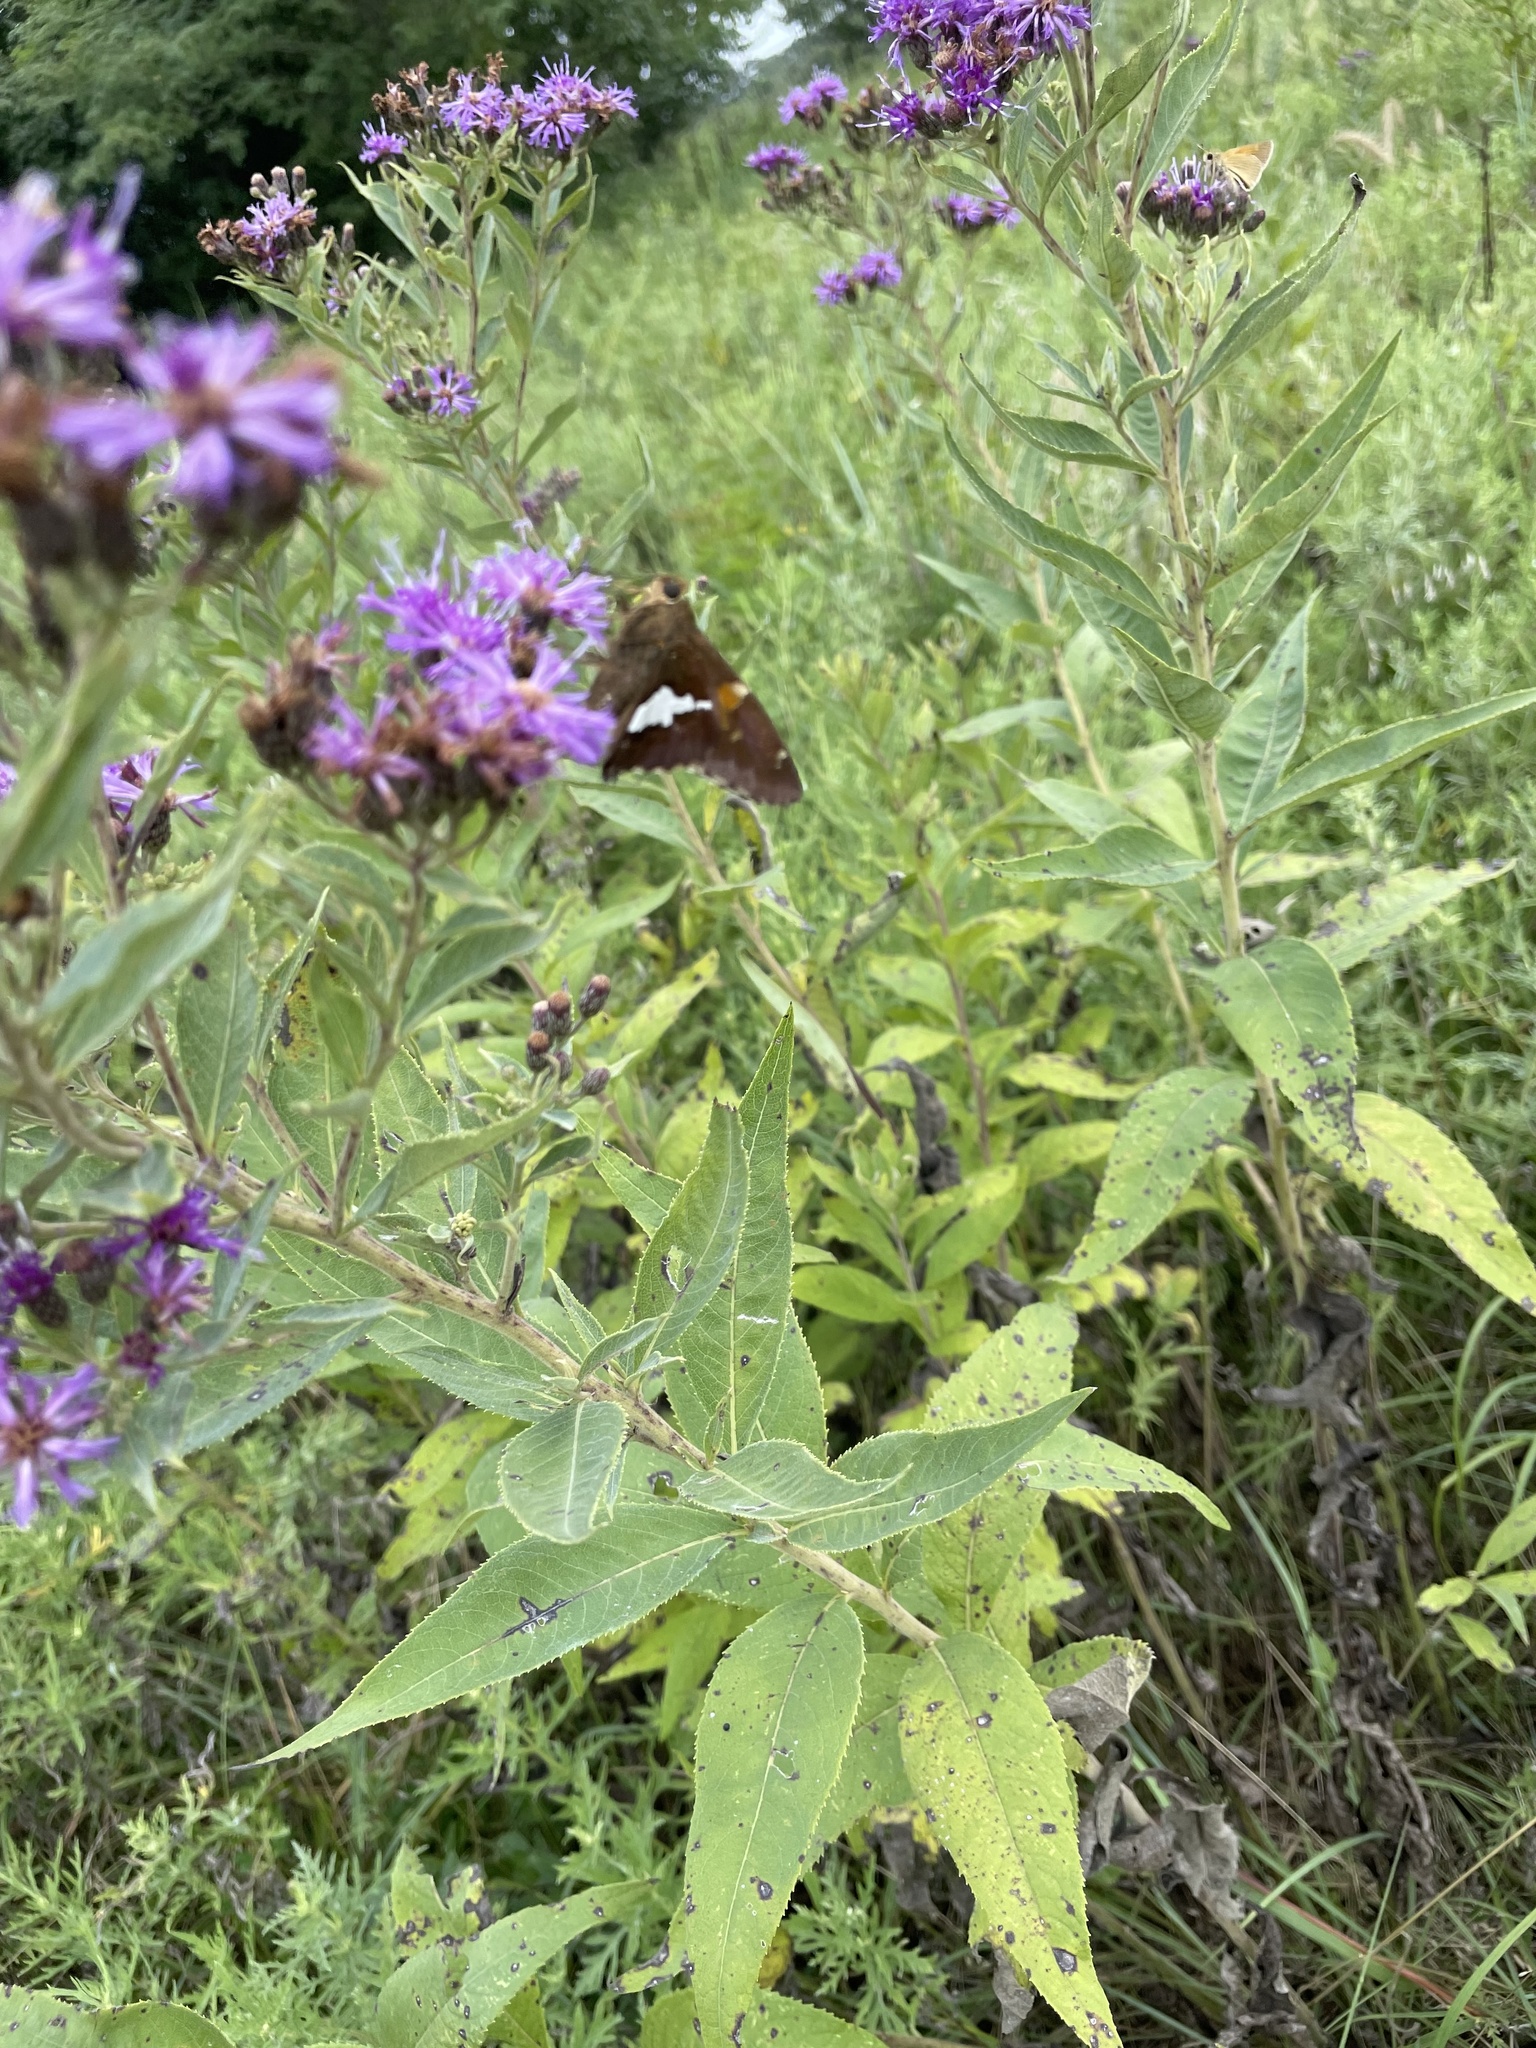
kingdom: Animalia
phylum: Arthropoda
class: Insecta
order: Lepidoptera
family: Hesperiidae
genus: Epargyreus
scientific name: Epargyreus clarus
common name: Silver-spotted skipper
